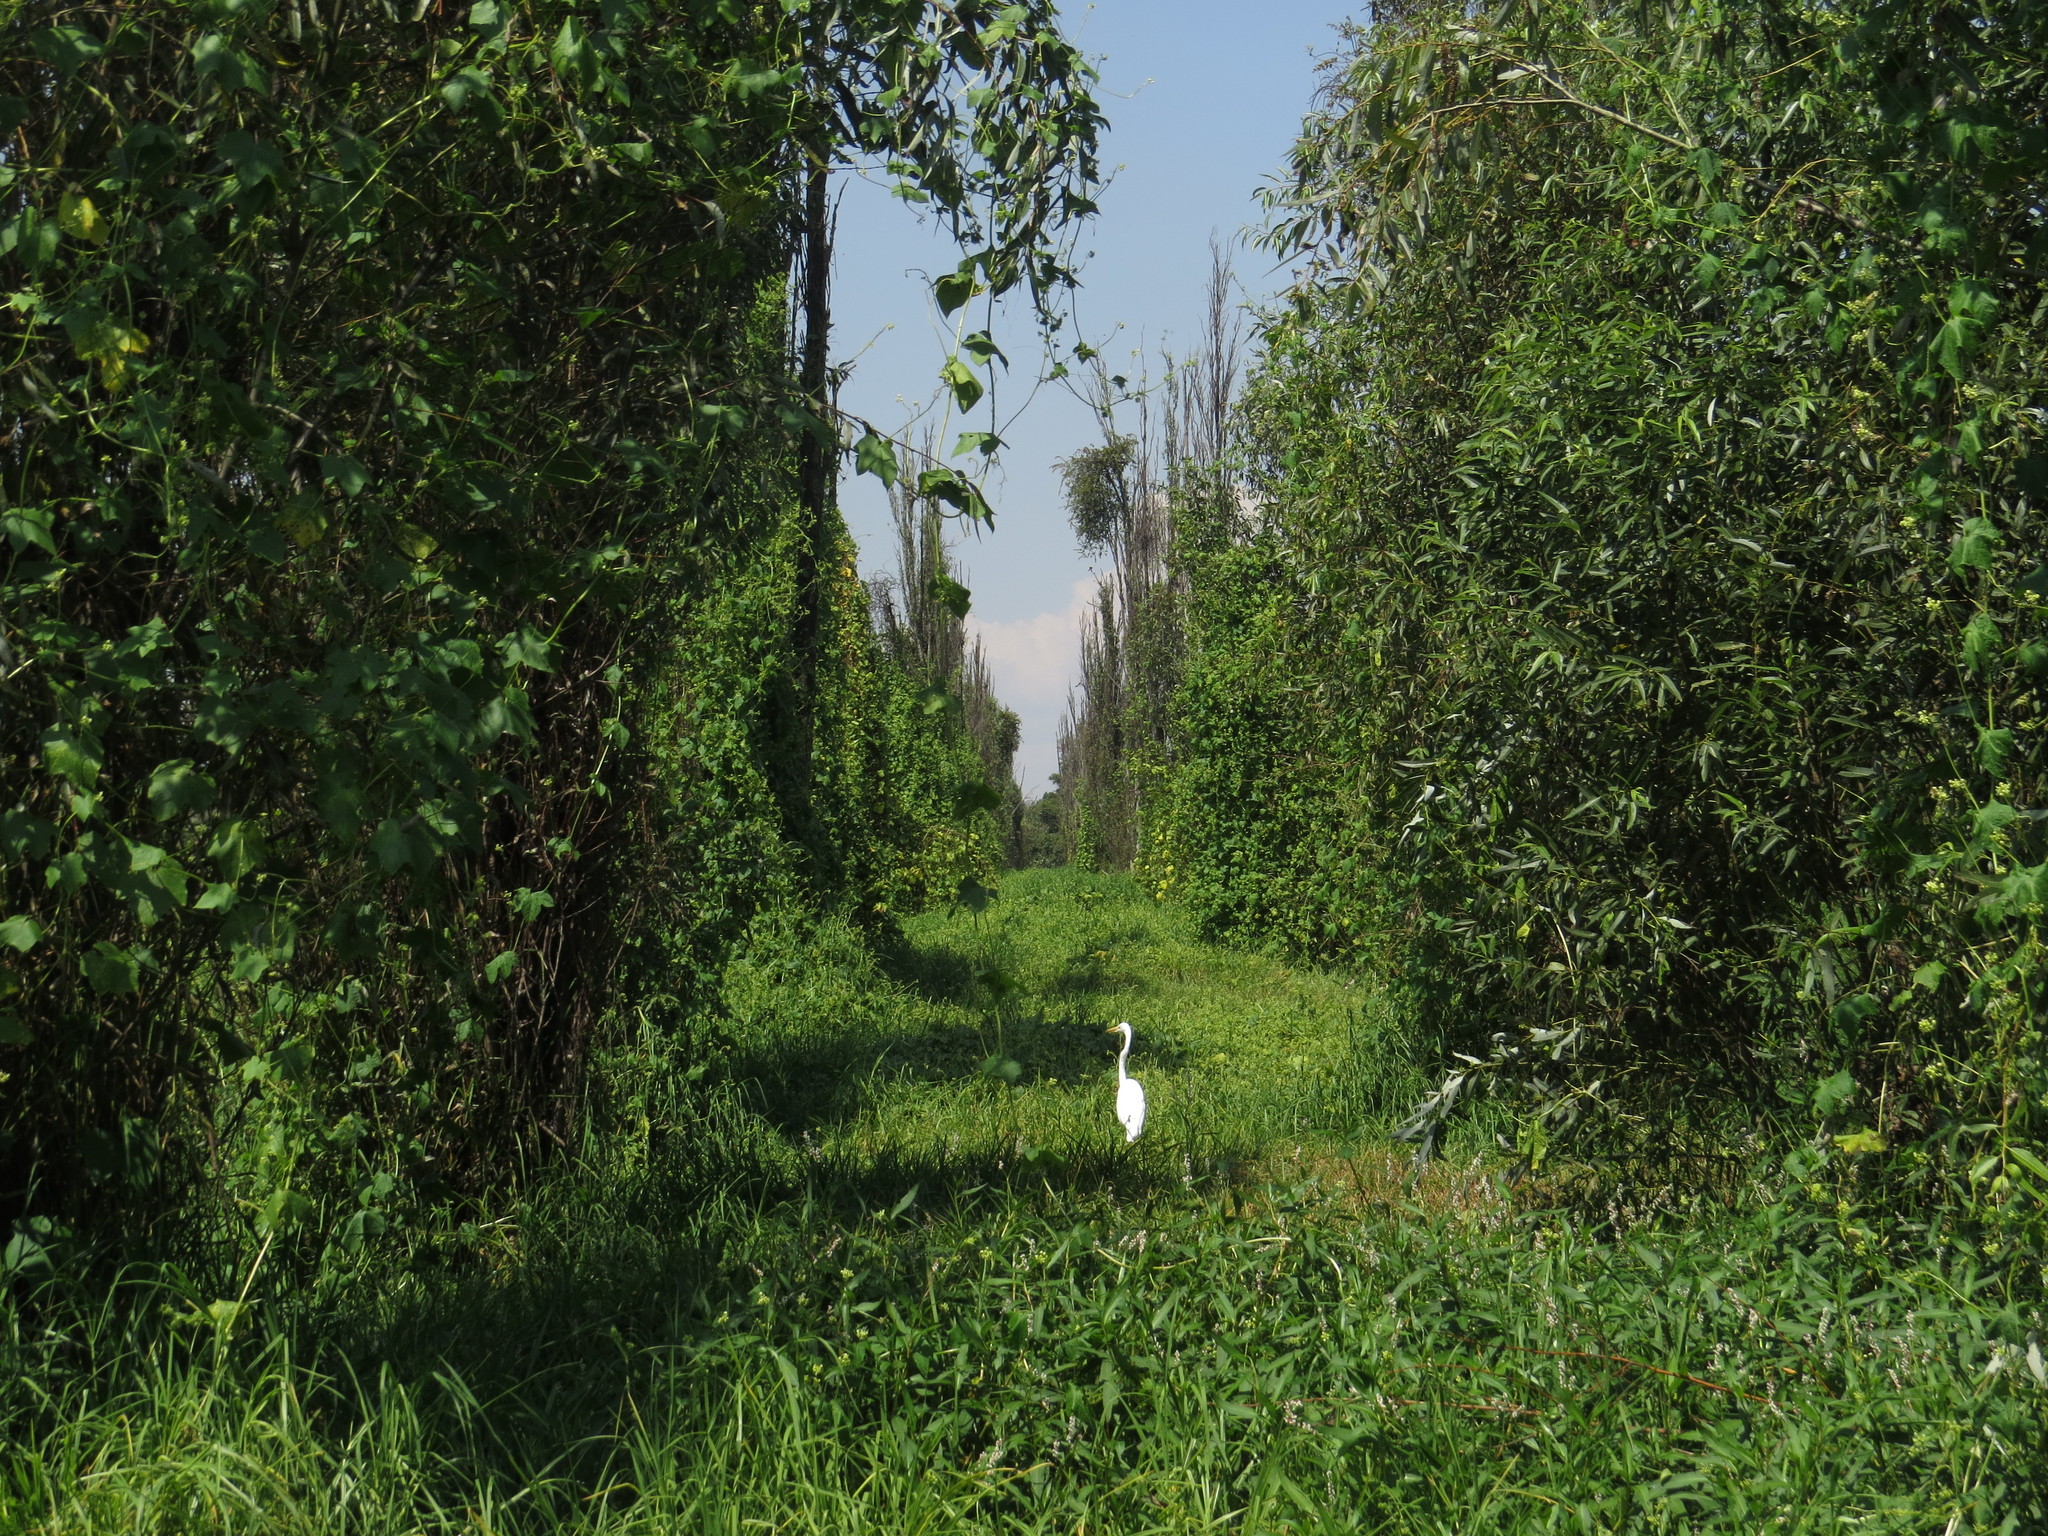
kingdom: Animalia
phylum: Chordata
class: Aves
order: Pelecaniformes
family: Ardeidae
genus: Ardea
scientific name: Ardea alba
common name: Great egret
